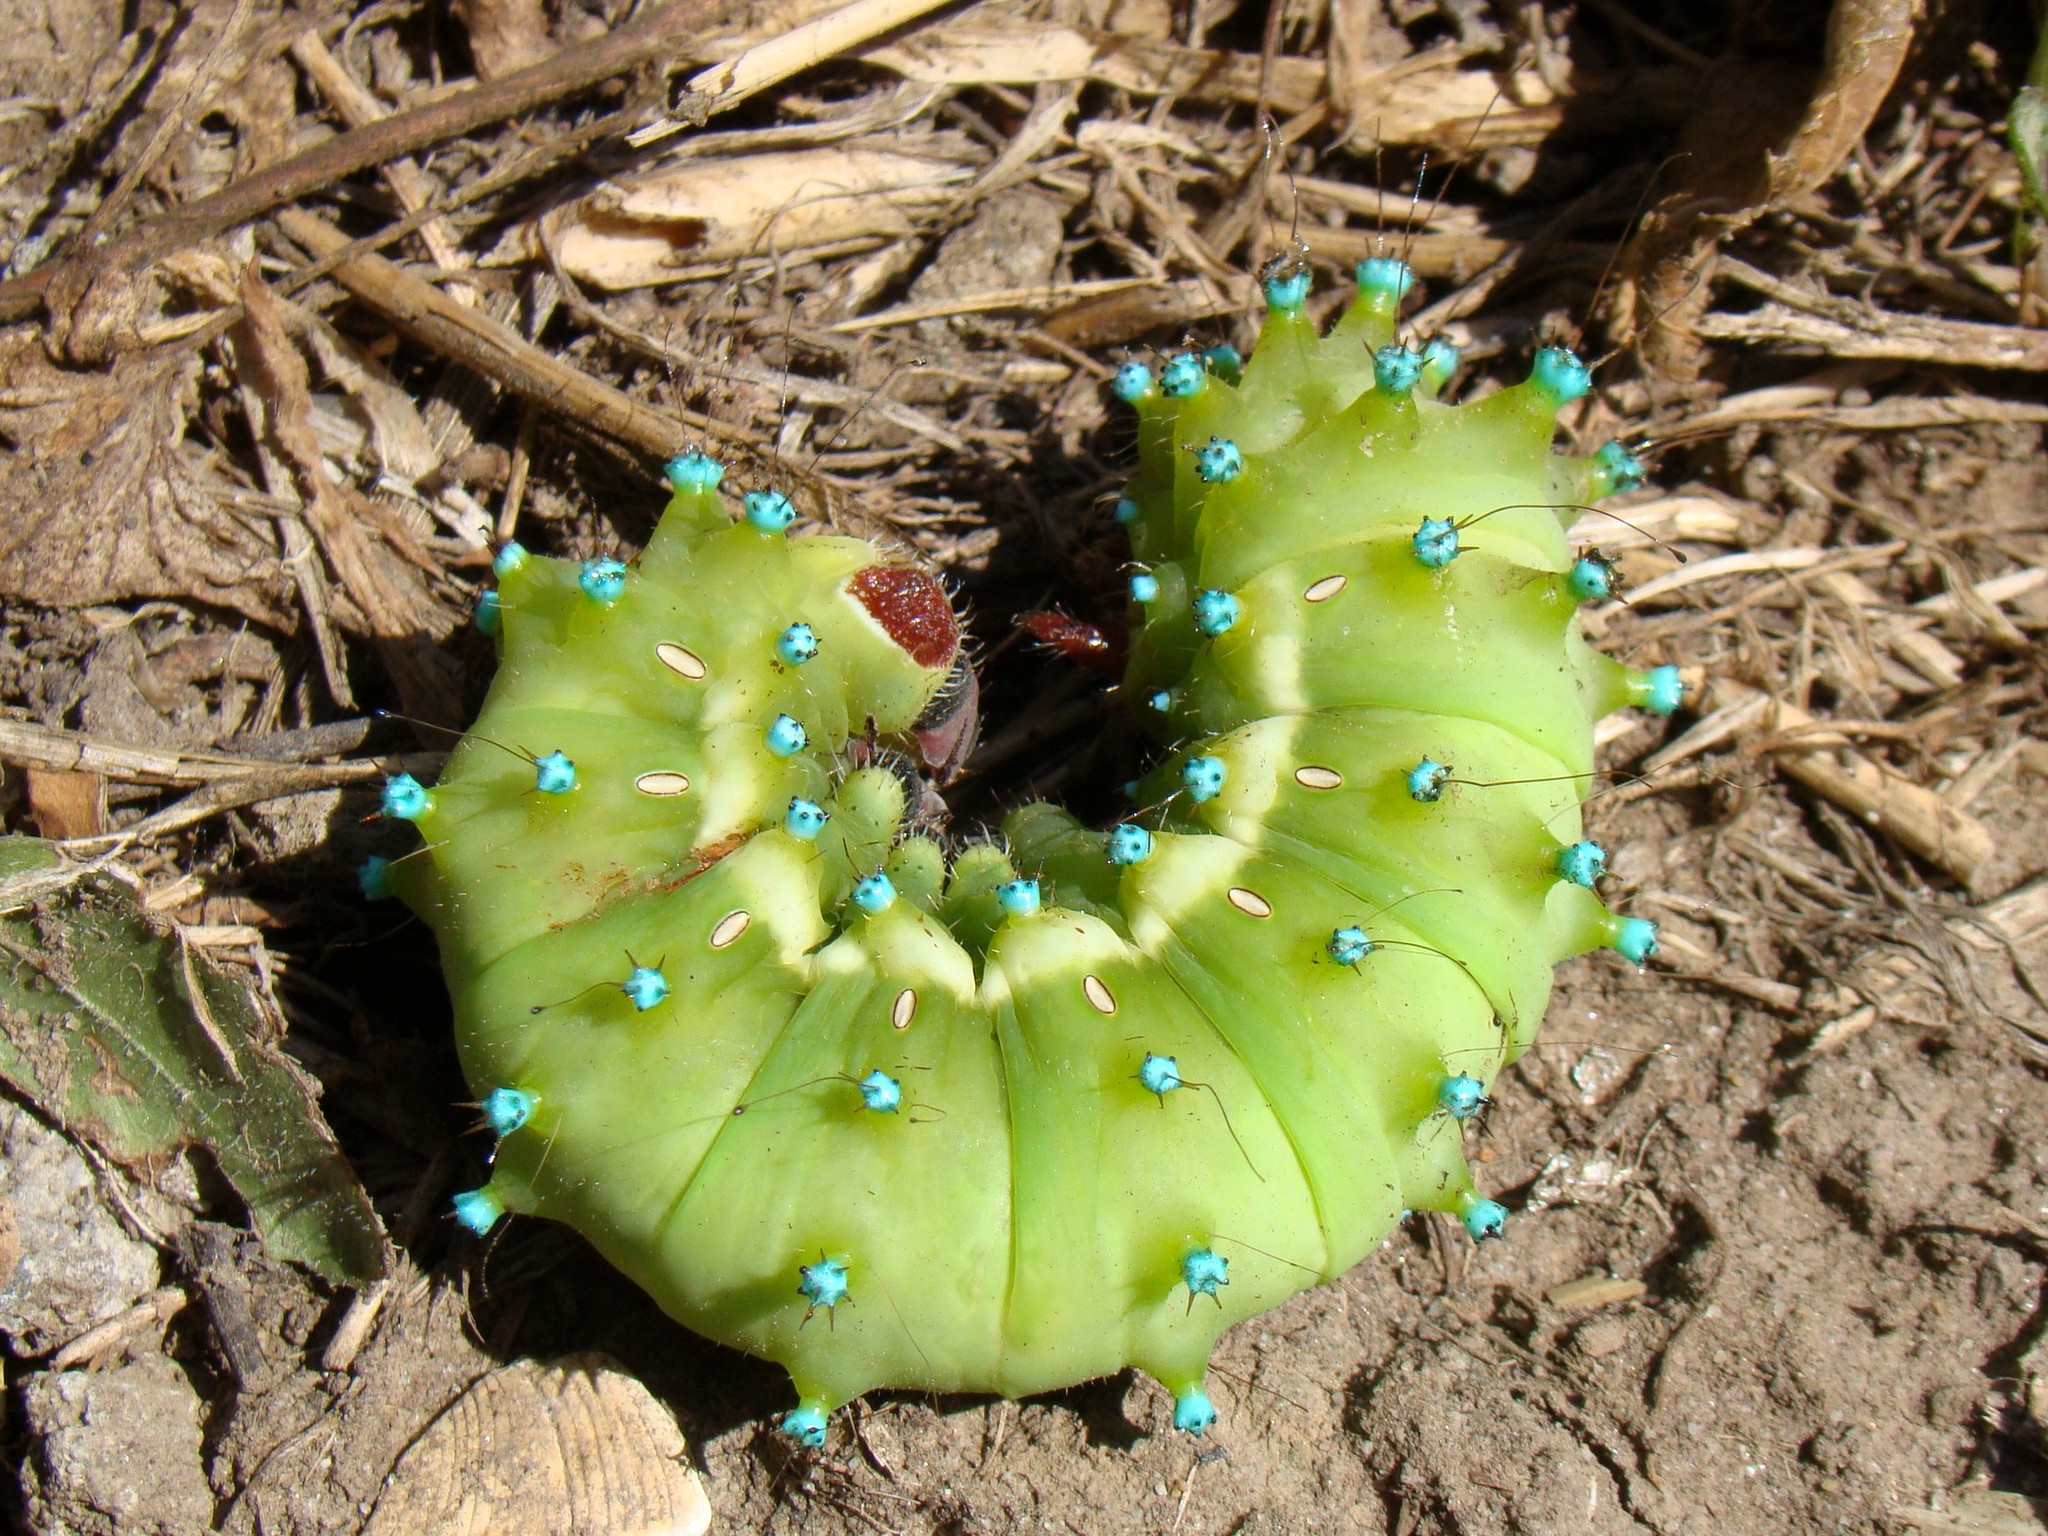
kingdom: Animalia
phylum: Arthropoda
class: Insecta
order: Lepidoptera
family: Saturniidae
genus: Saturnia
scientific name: Saturnia pyri
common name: Great peacock moth
